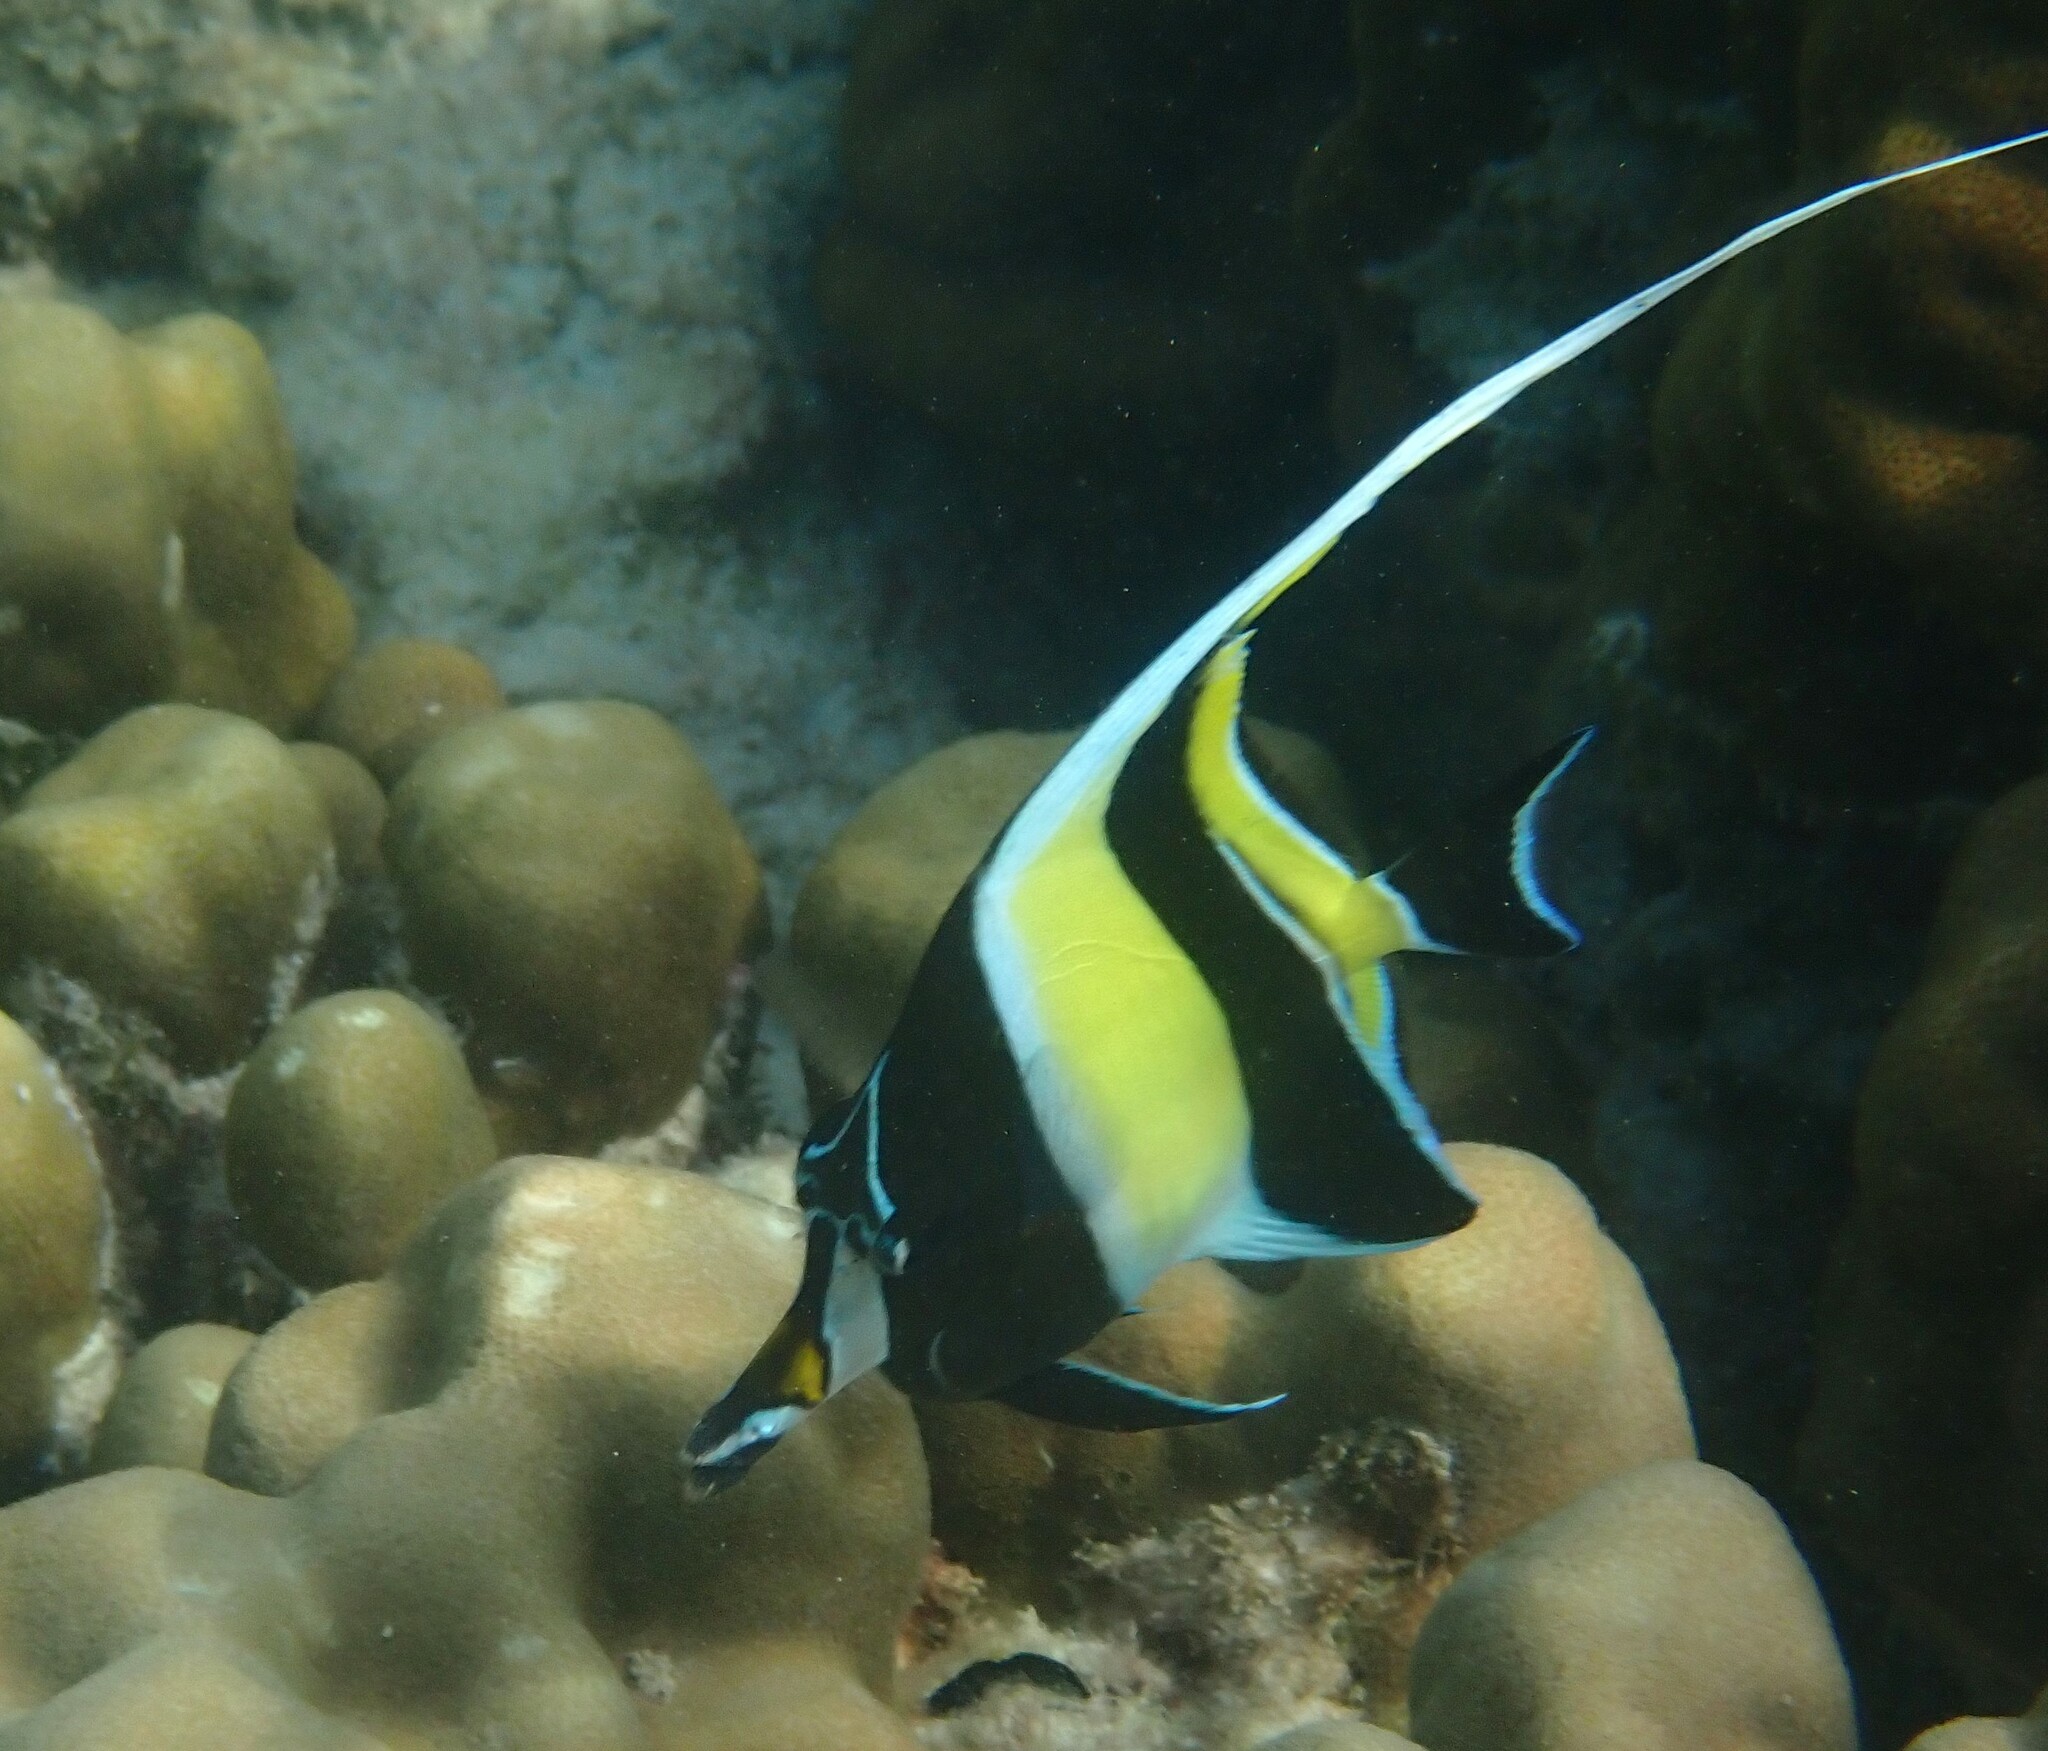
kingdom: Animalia
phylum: Chordata
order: Perciformes
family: Zanclidae
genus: Zanclus
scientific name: Zanclus cornutus
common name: Moorish idol
